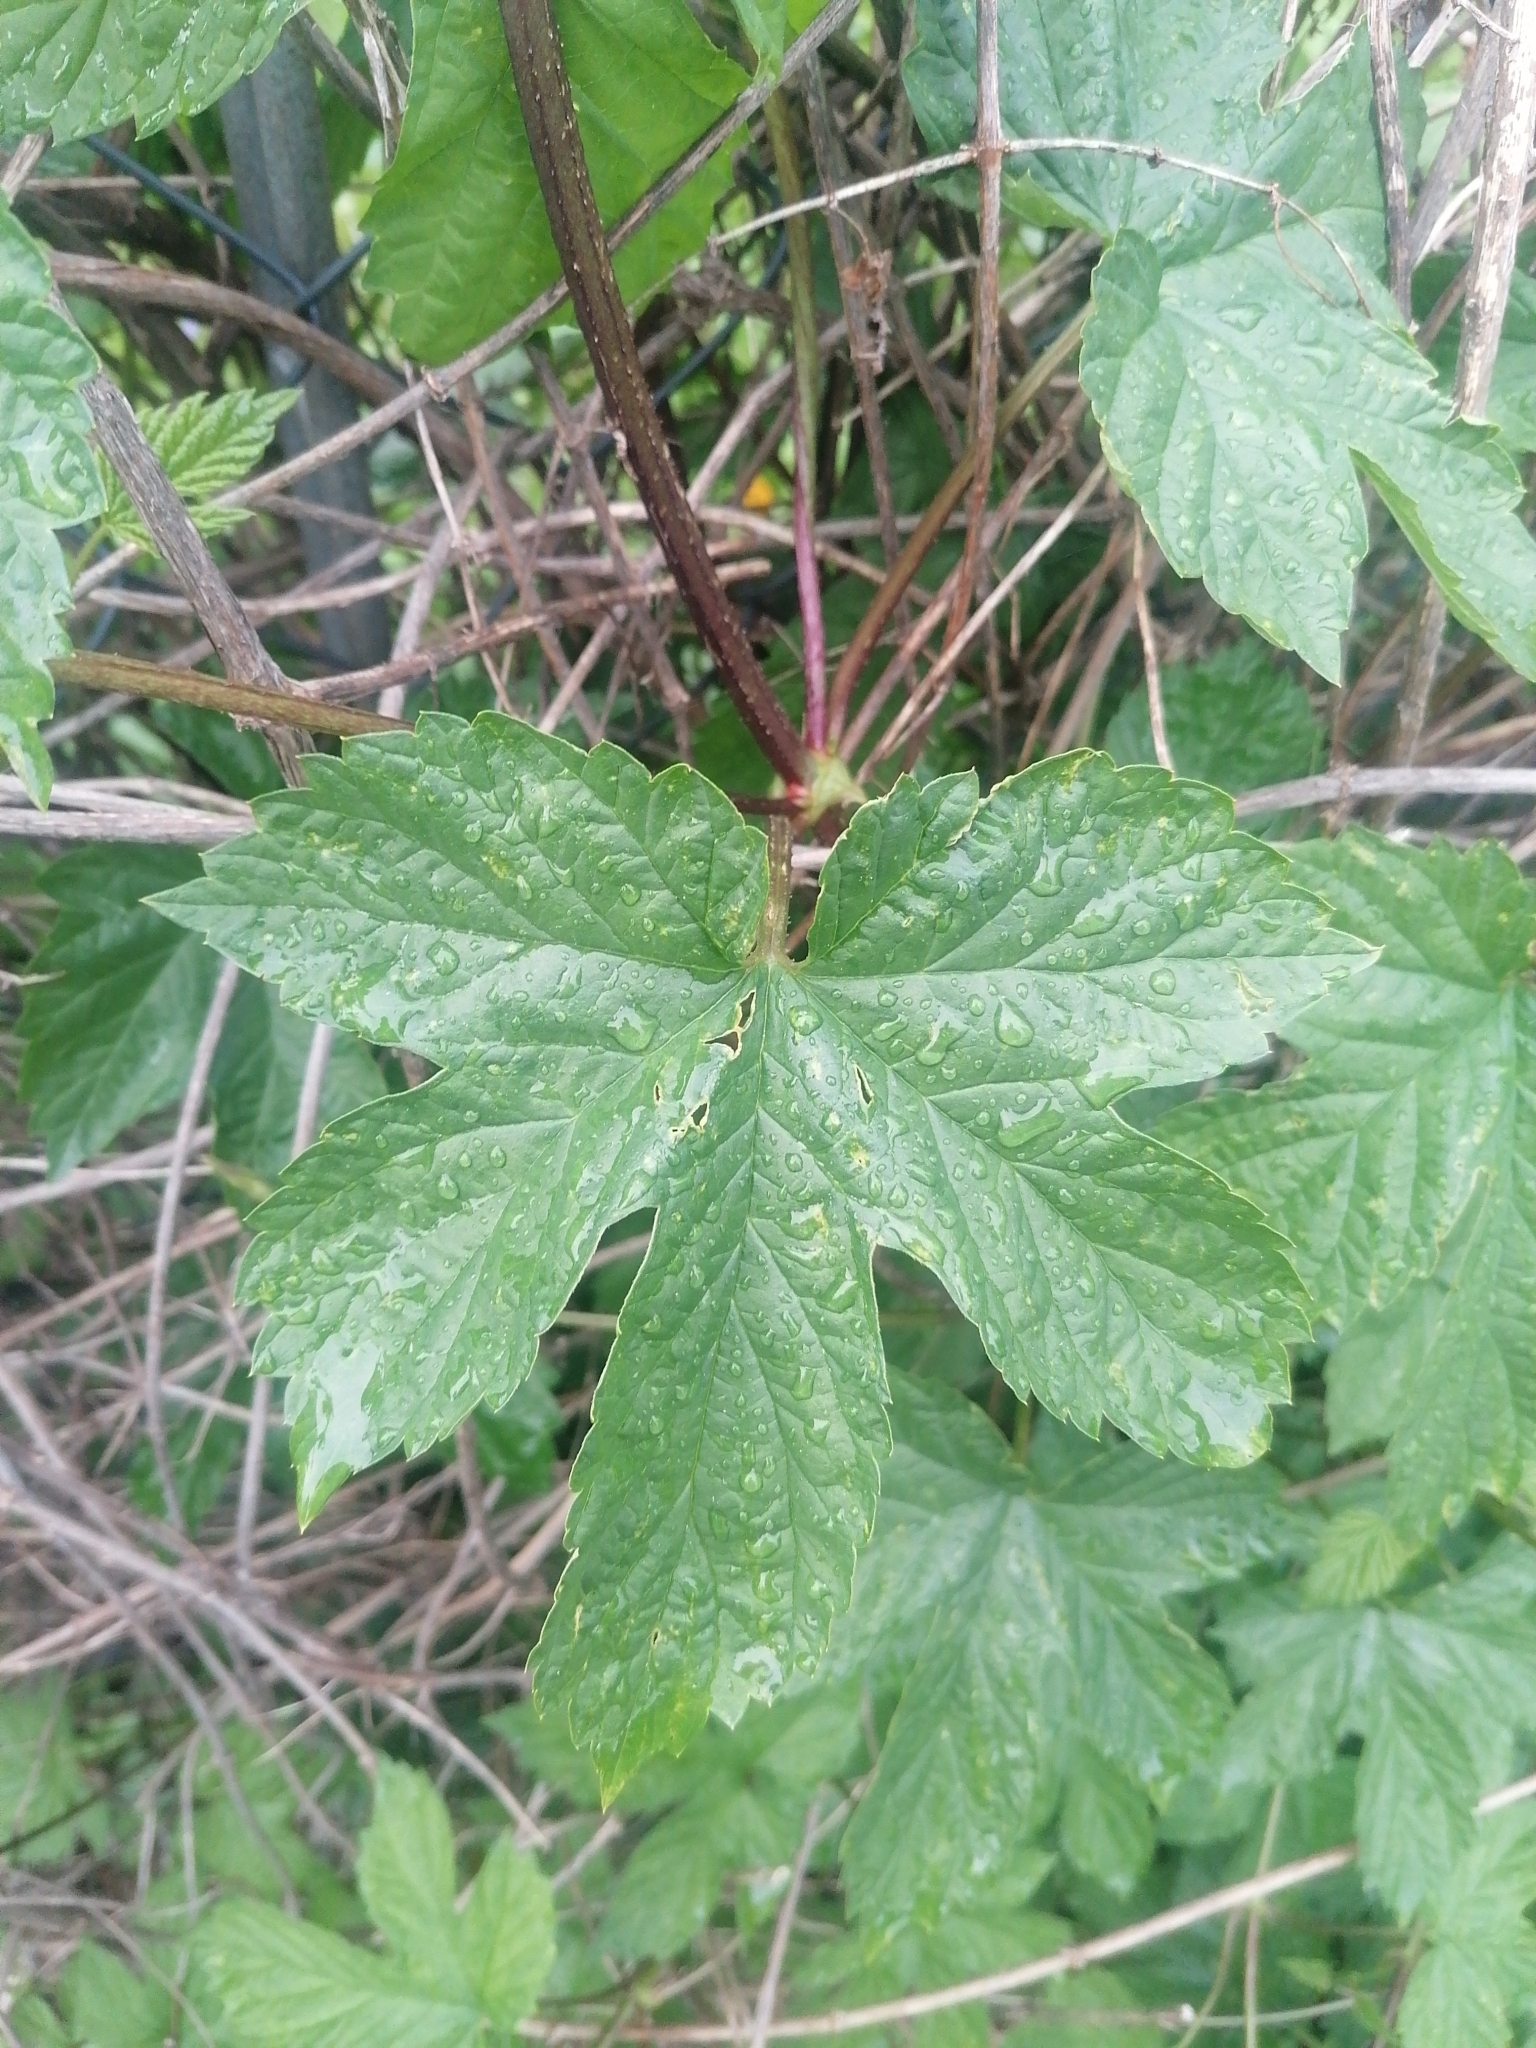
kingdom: Plantae
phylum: Tracheophyta
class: Magnoliopsida
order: Rosales
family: Cannabaceae
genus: Humulus
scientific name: Humulus lupulus
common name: Hop
